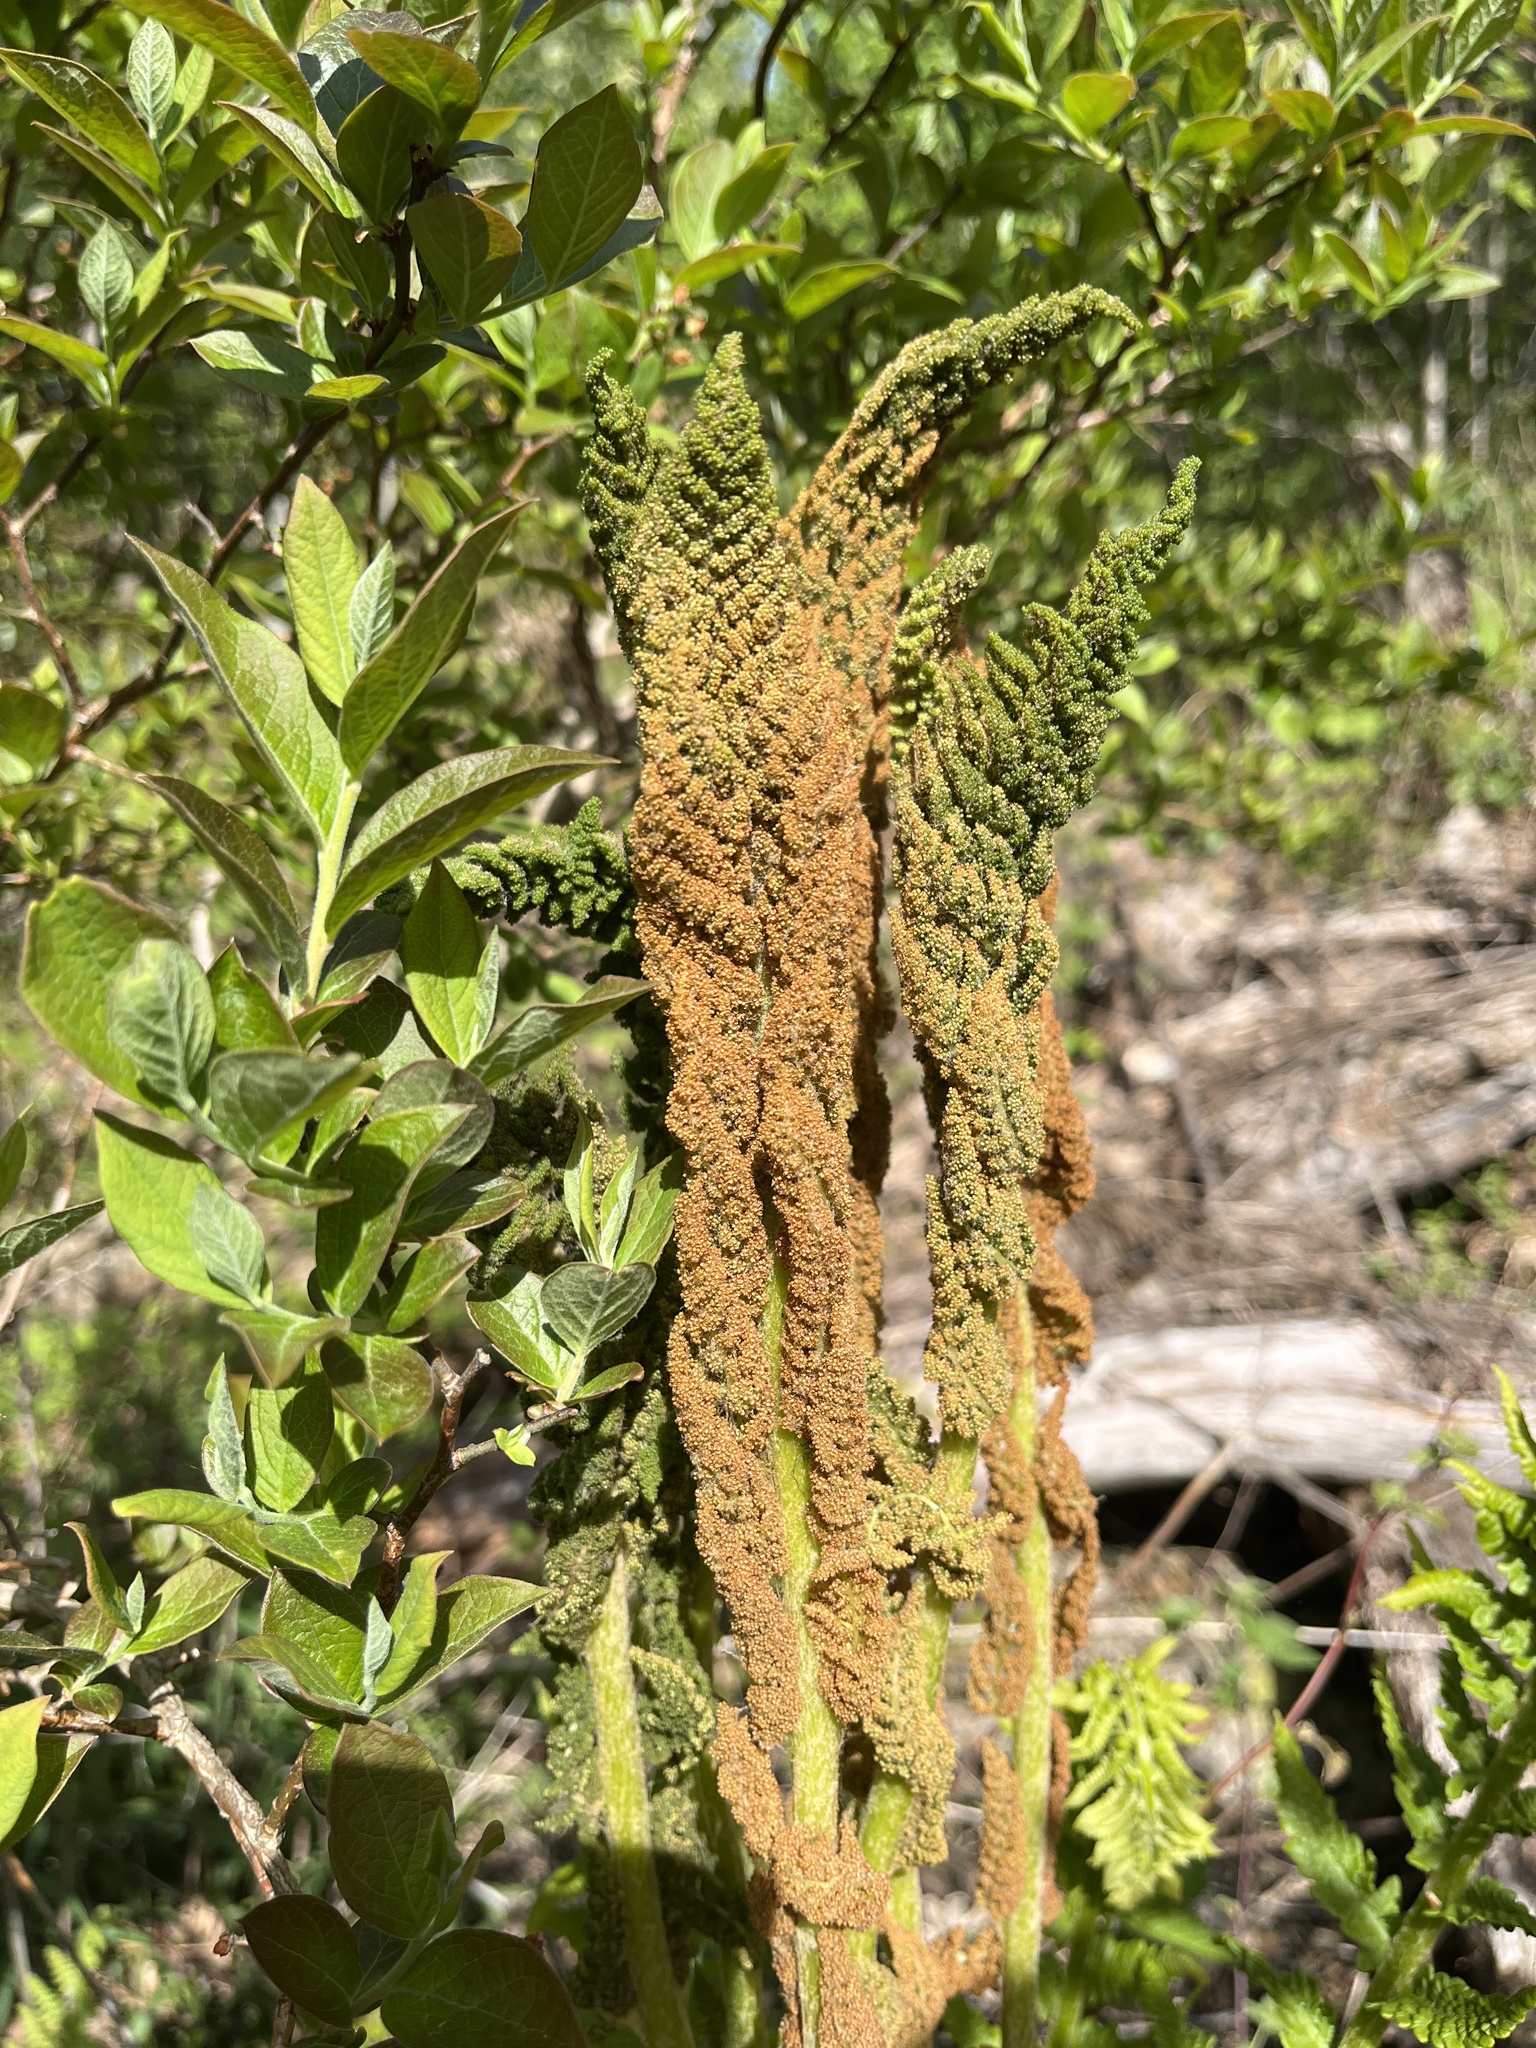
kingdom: Plantae
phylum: Tracheophyta
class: Polypodiopsida
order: Osmundales
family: Osmundaceae
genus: Osmundastrum
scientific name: Osmundastrum cinnamomeum
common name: Cinnamon fern
